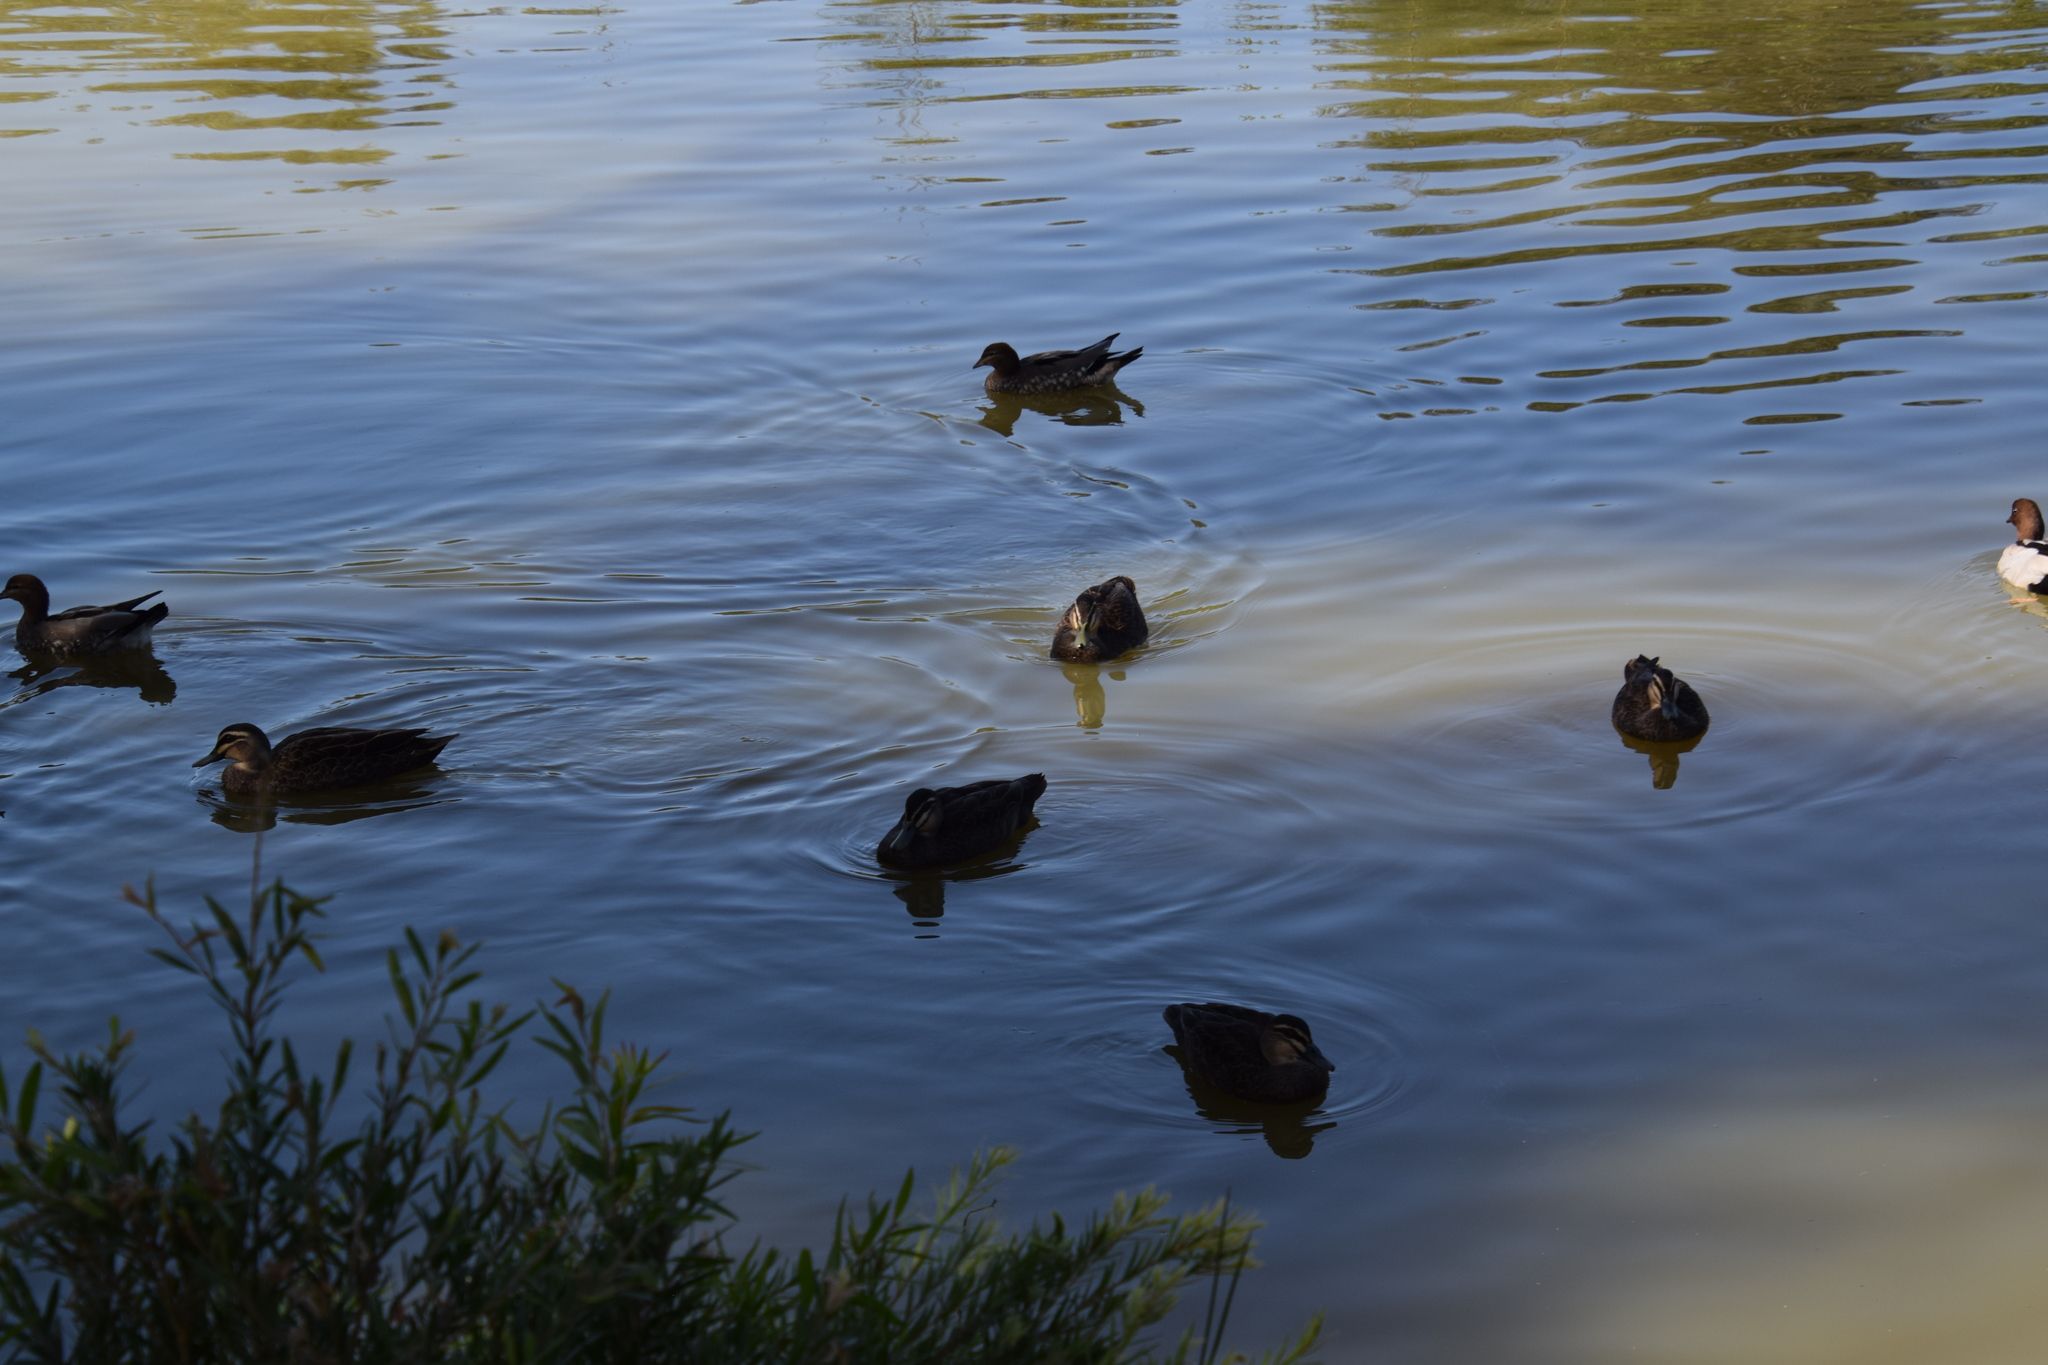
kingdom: Animalia
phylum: Chordata
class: Aves
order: Anseriformes
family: Anatidae
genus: Anas
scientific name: Anas superciliosa
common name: Pacific black duck
